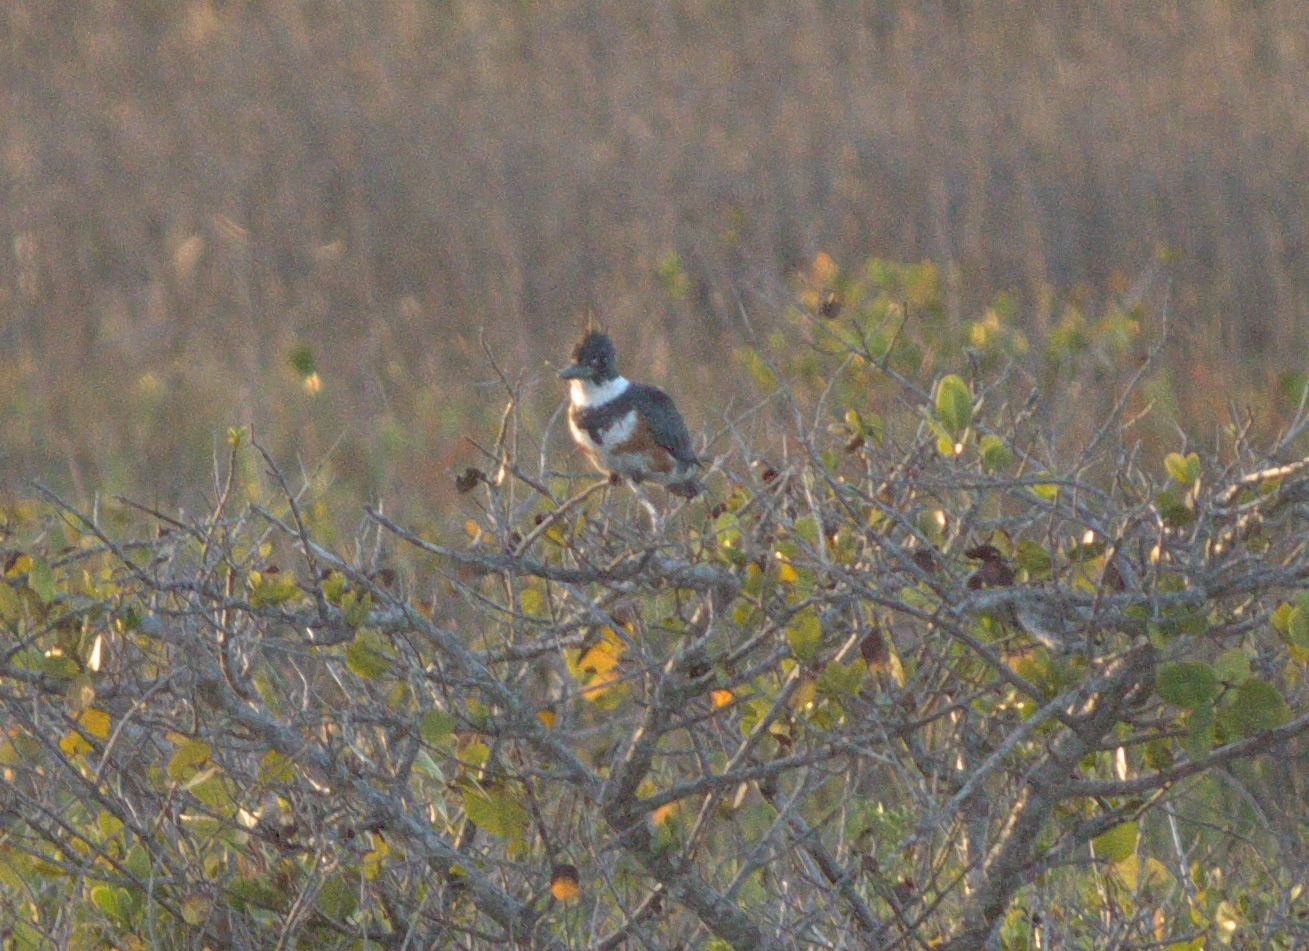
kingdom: Animalia
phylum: Chordata
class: Aves
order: Coraciiformes
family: Alcedinidae
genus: Megaceryle
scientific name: Megaceryle alcyon
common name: Belted kingfisher
